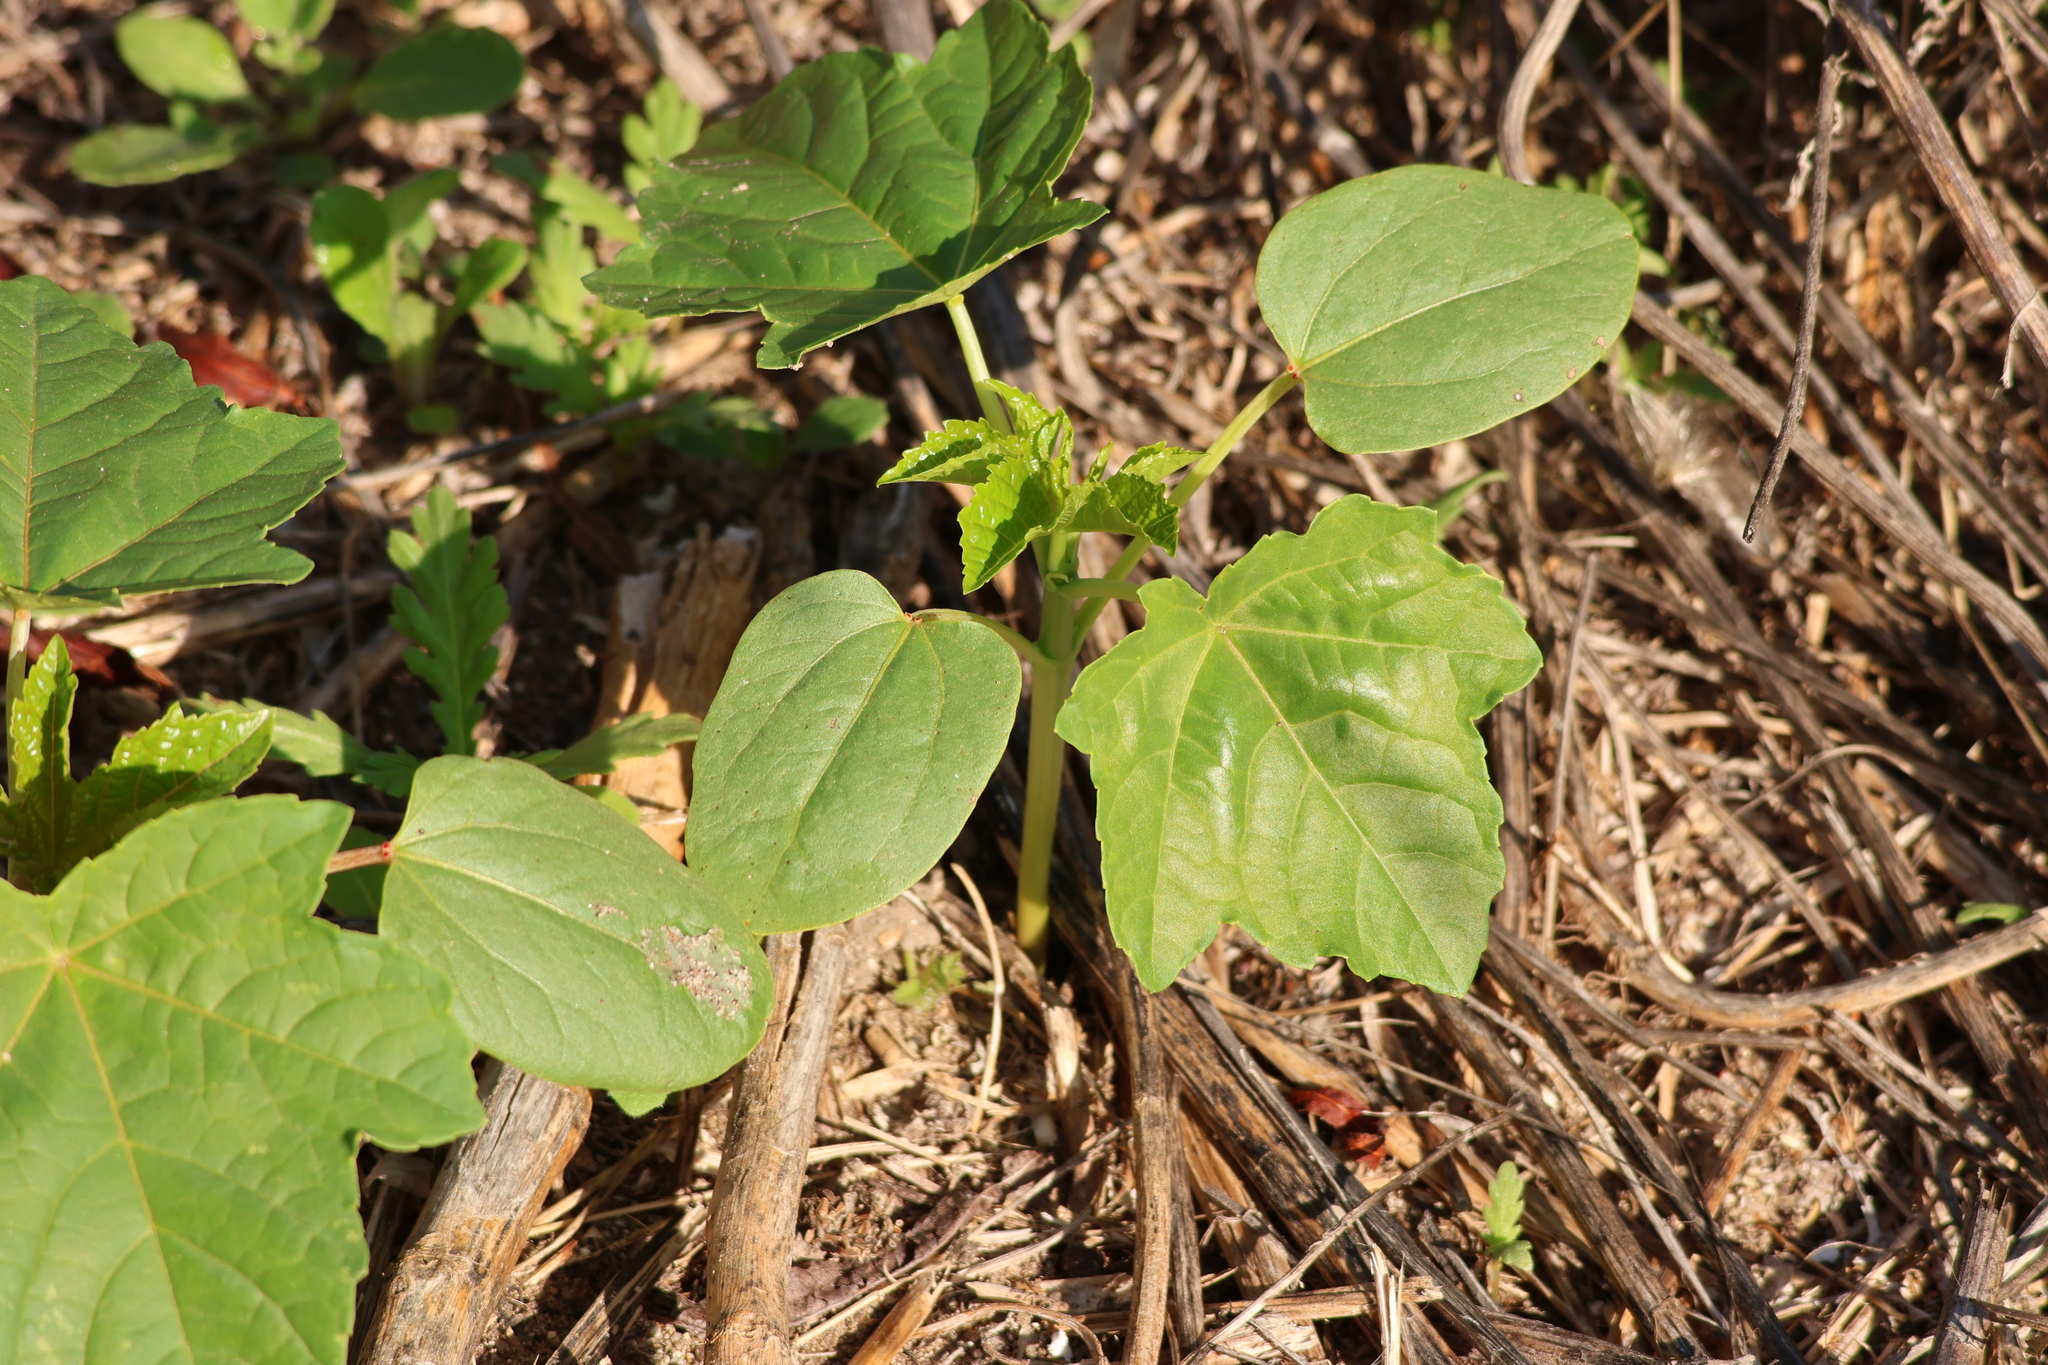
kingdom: Plantae
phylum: Tracheophyta
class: Magnoliopsida
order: Malpighiales
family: Euphorbiaceae
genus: Ricinus
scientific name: Ricinus communis
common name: Castor-oil-plant
